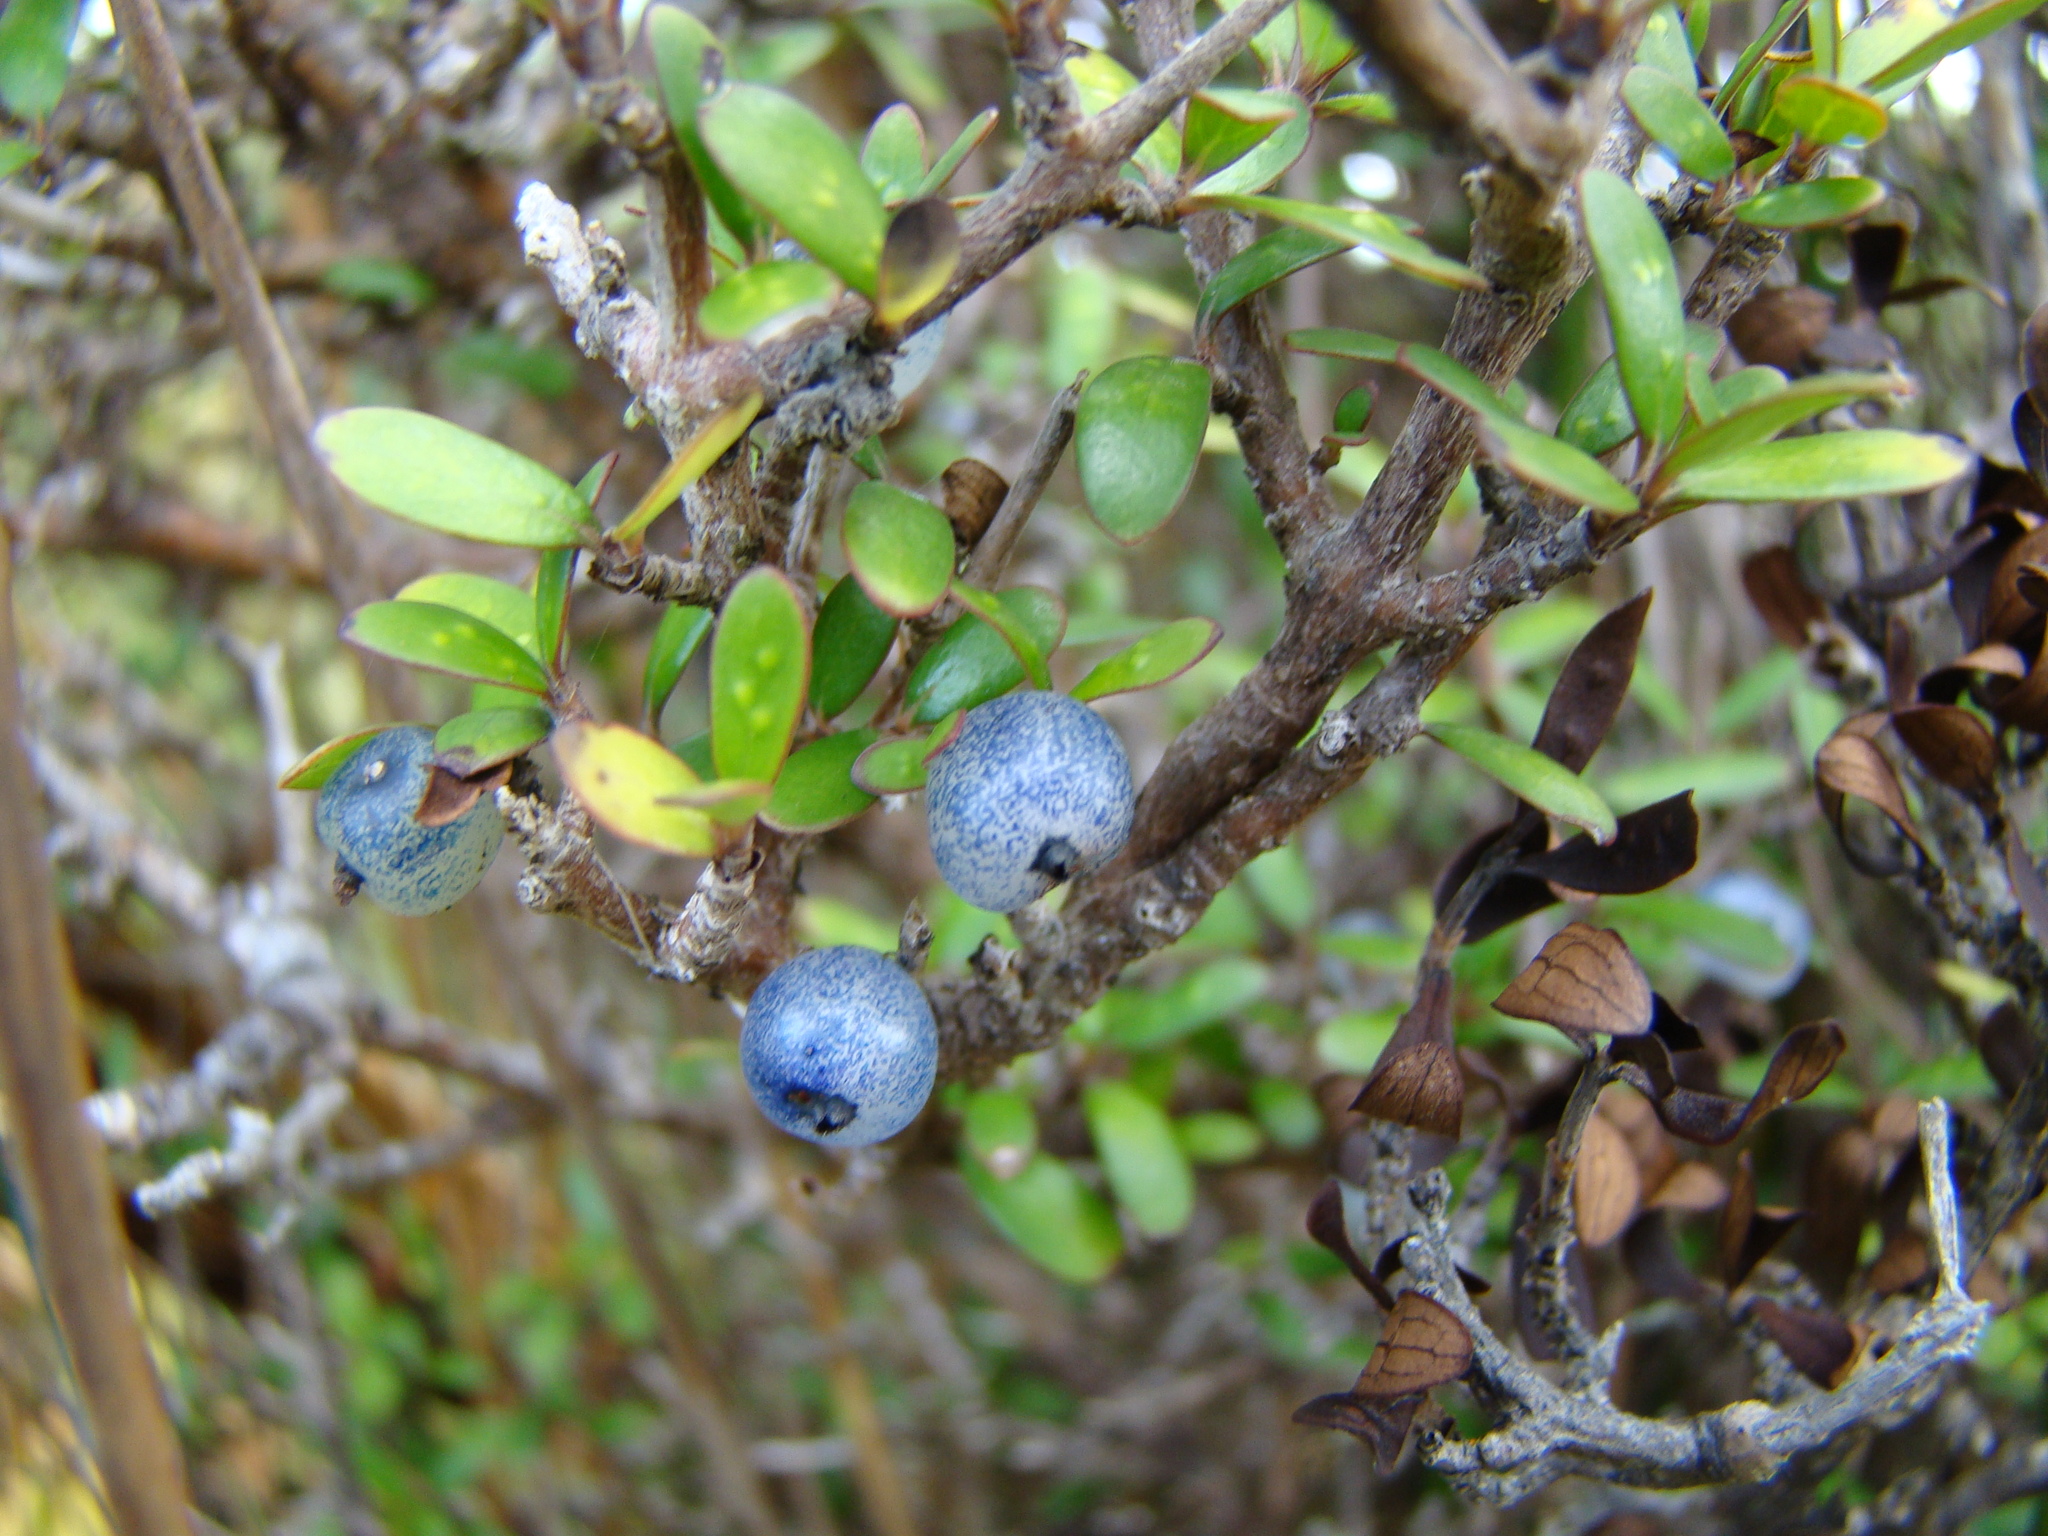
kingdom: Plantae
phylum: Tracheophyta
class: Magnoliopsida
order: Gentianales
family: Rubiaceae
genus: Coprosma
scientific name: Coprosma propinqua
